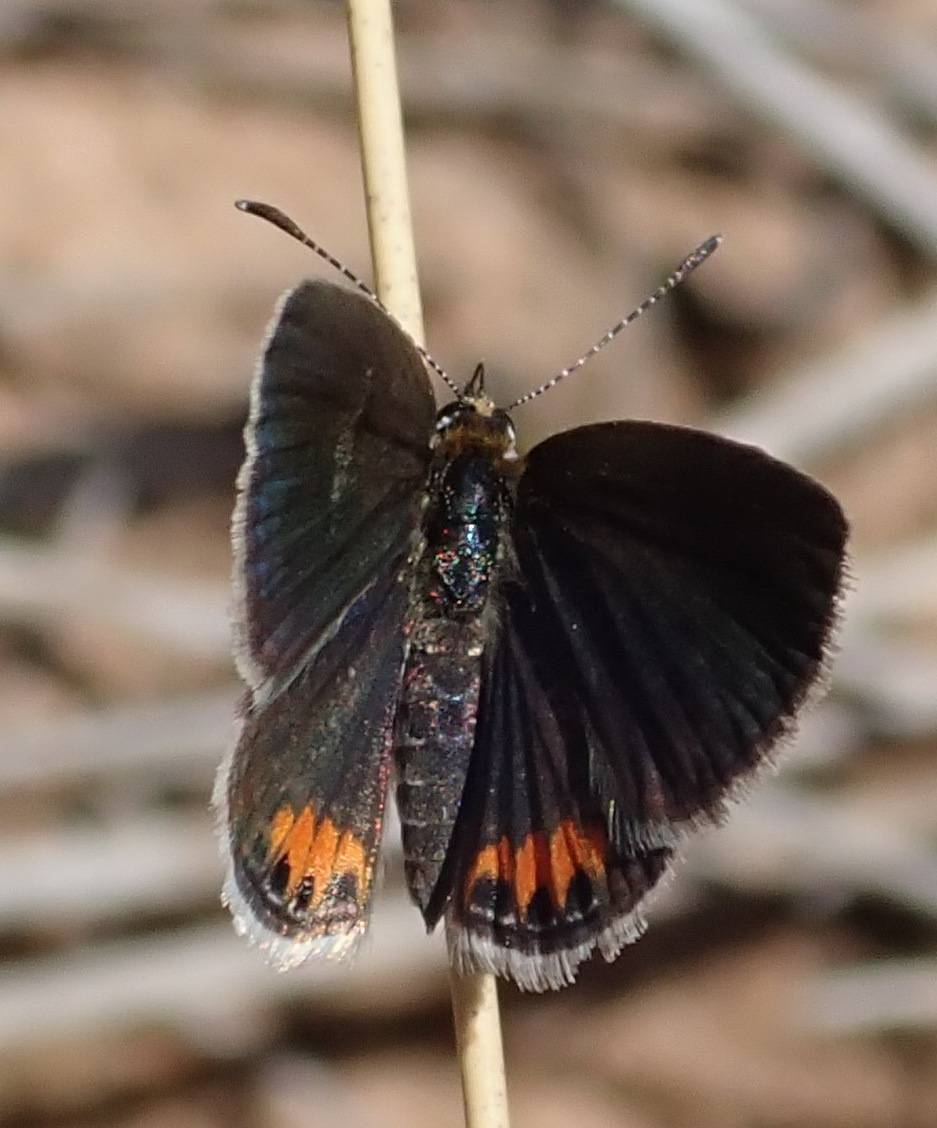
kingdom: Animalia
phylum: Arthropoda
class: Insecta
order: Lepidoptera
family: Lycaenidae
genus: Freyeria
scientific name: Freyeria trochylus
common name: Grass jewel
